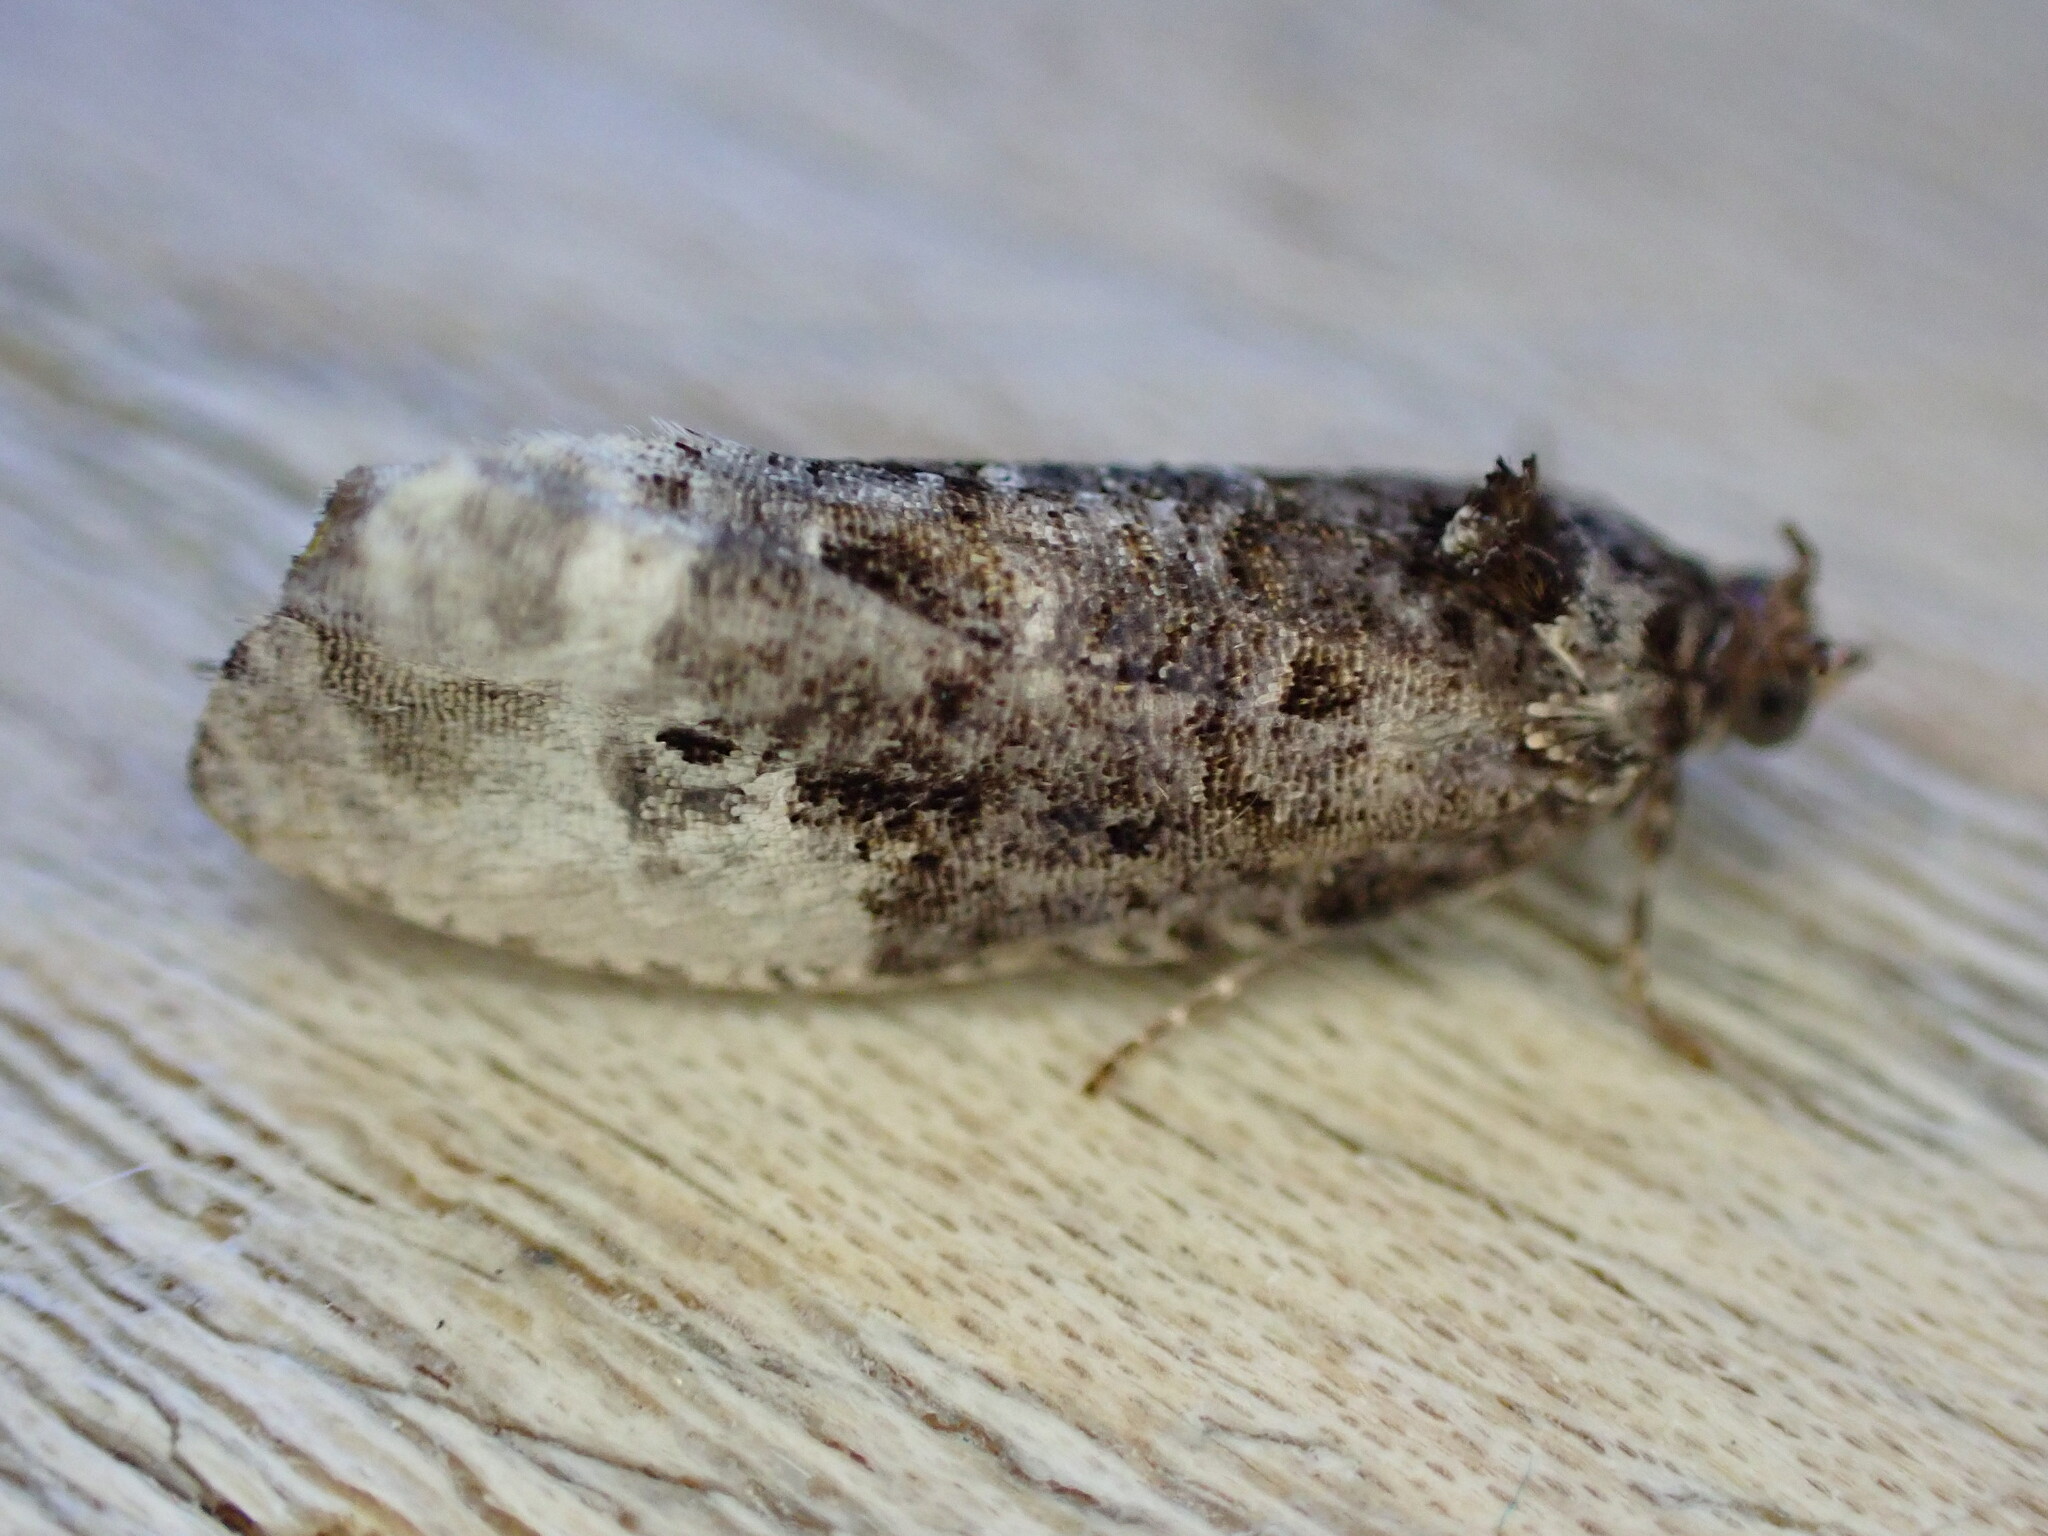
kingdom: Animalia
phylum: Arthropoda
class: Insecta
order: Lepidoptera
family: Tortricidae
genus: Hedya
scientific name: Hedya nubiferana
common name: Marbled orchard tortrix
